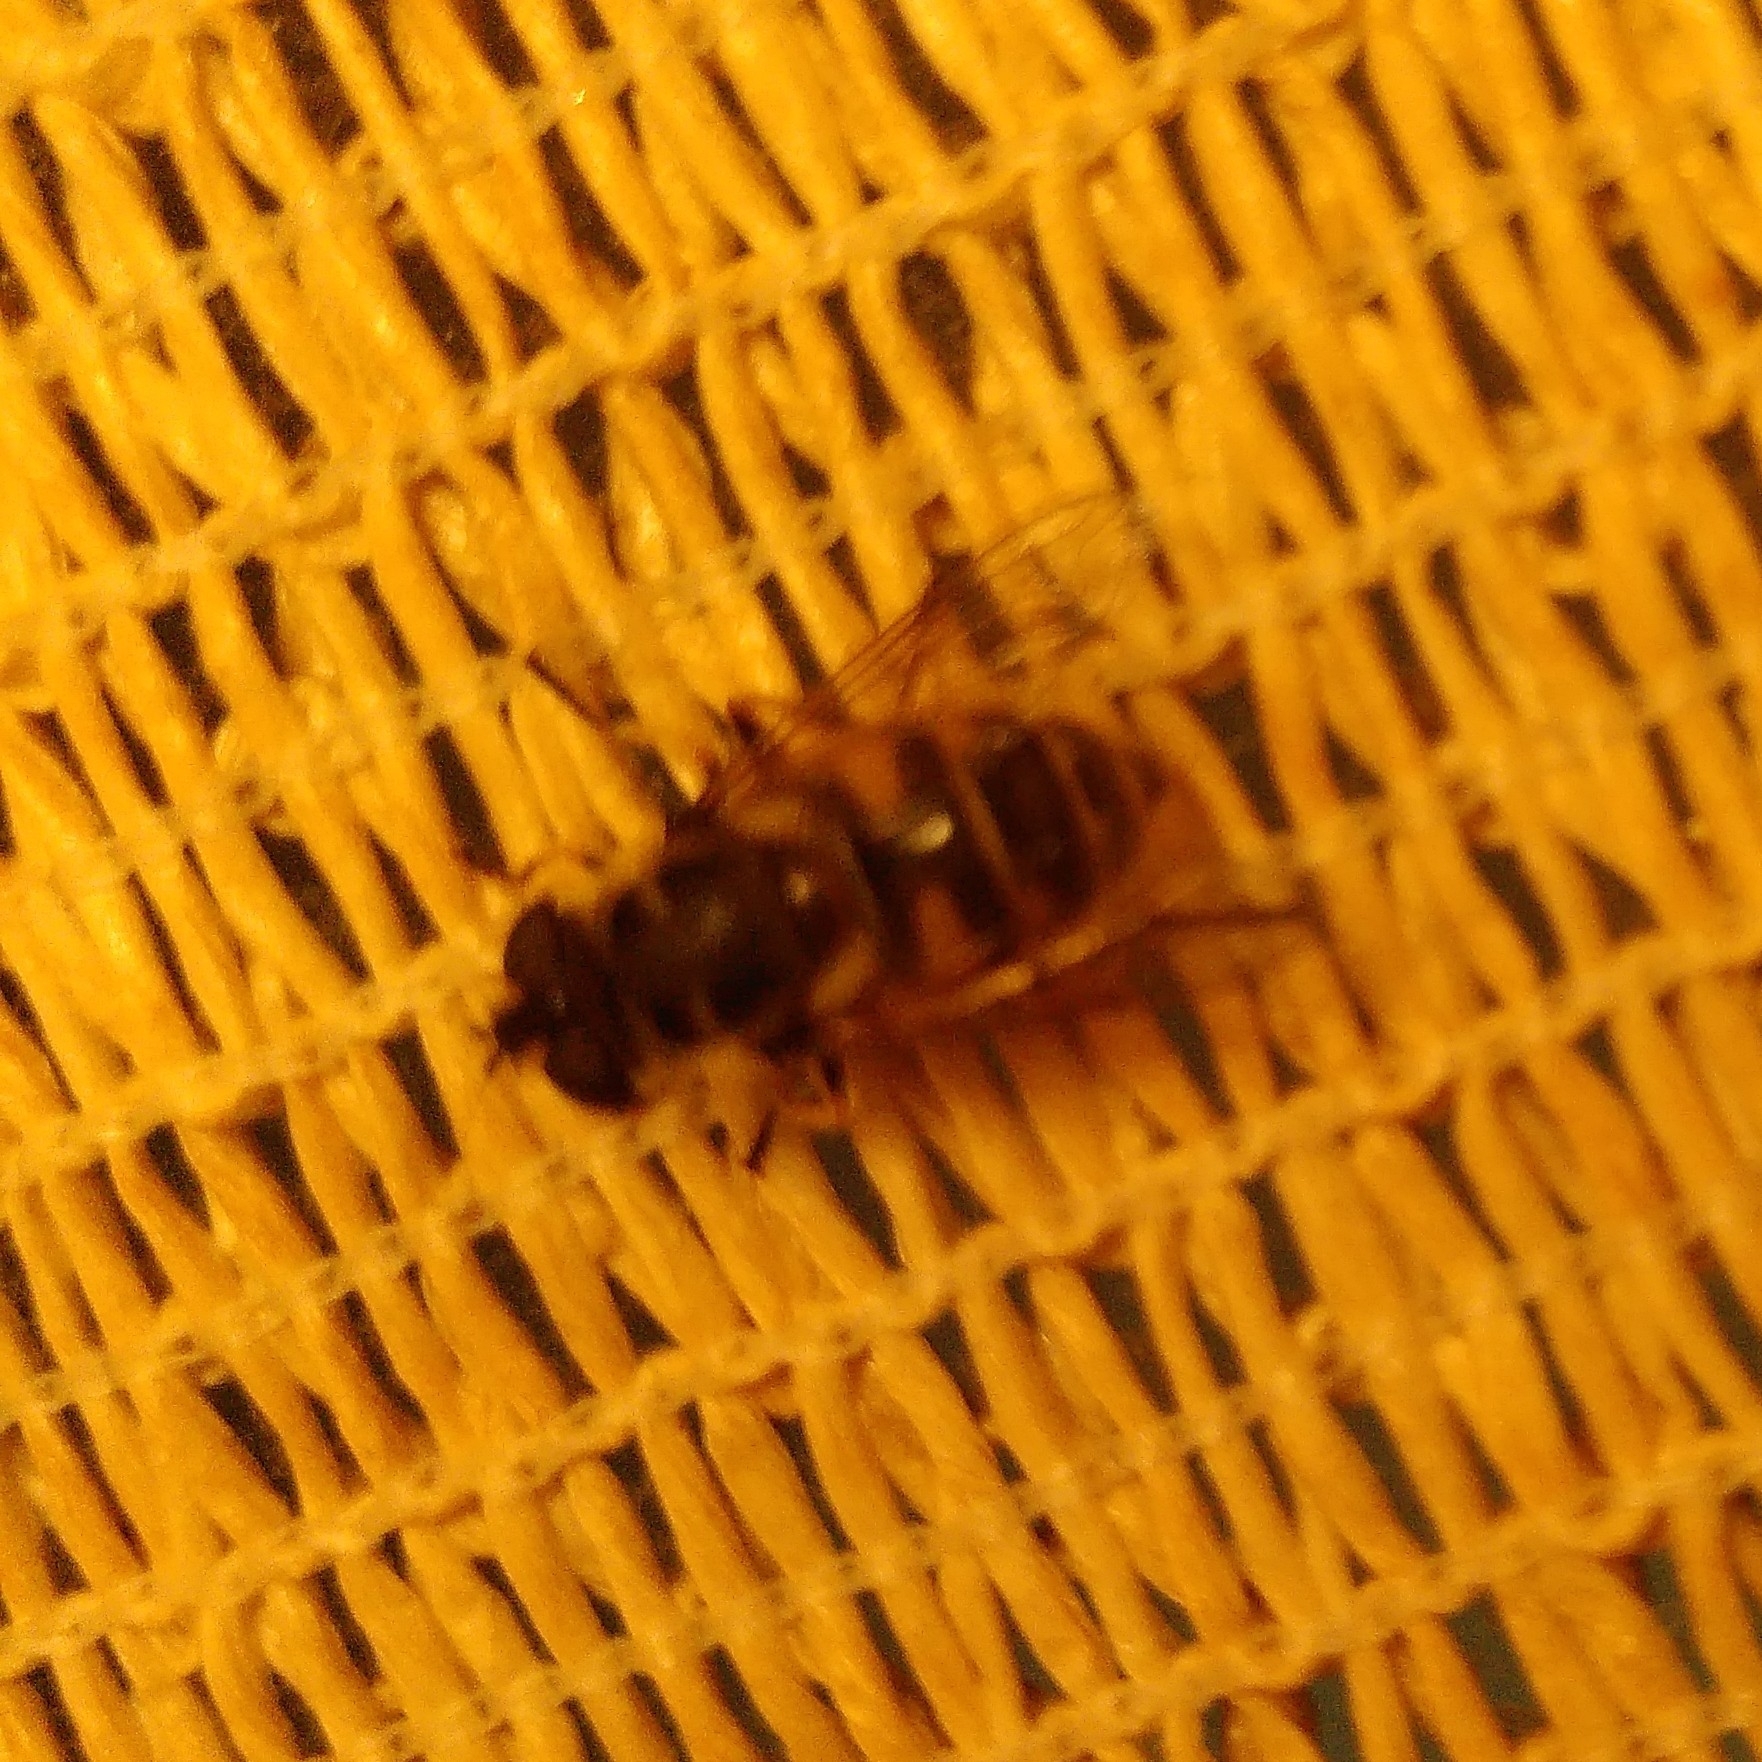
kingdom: Animalia
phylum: Arthropoda
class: Insecta
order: Diptera
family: Syrphidae
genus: Myathropa
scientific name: Myathropa florea
